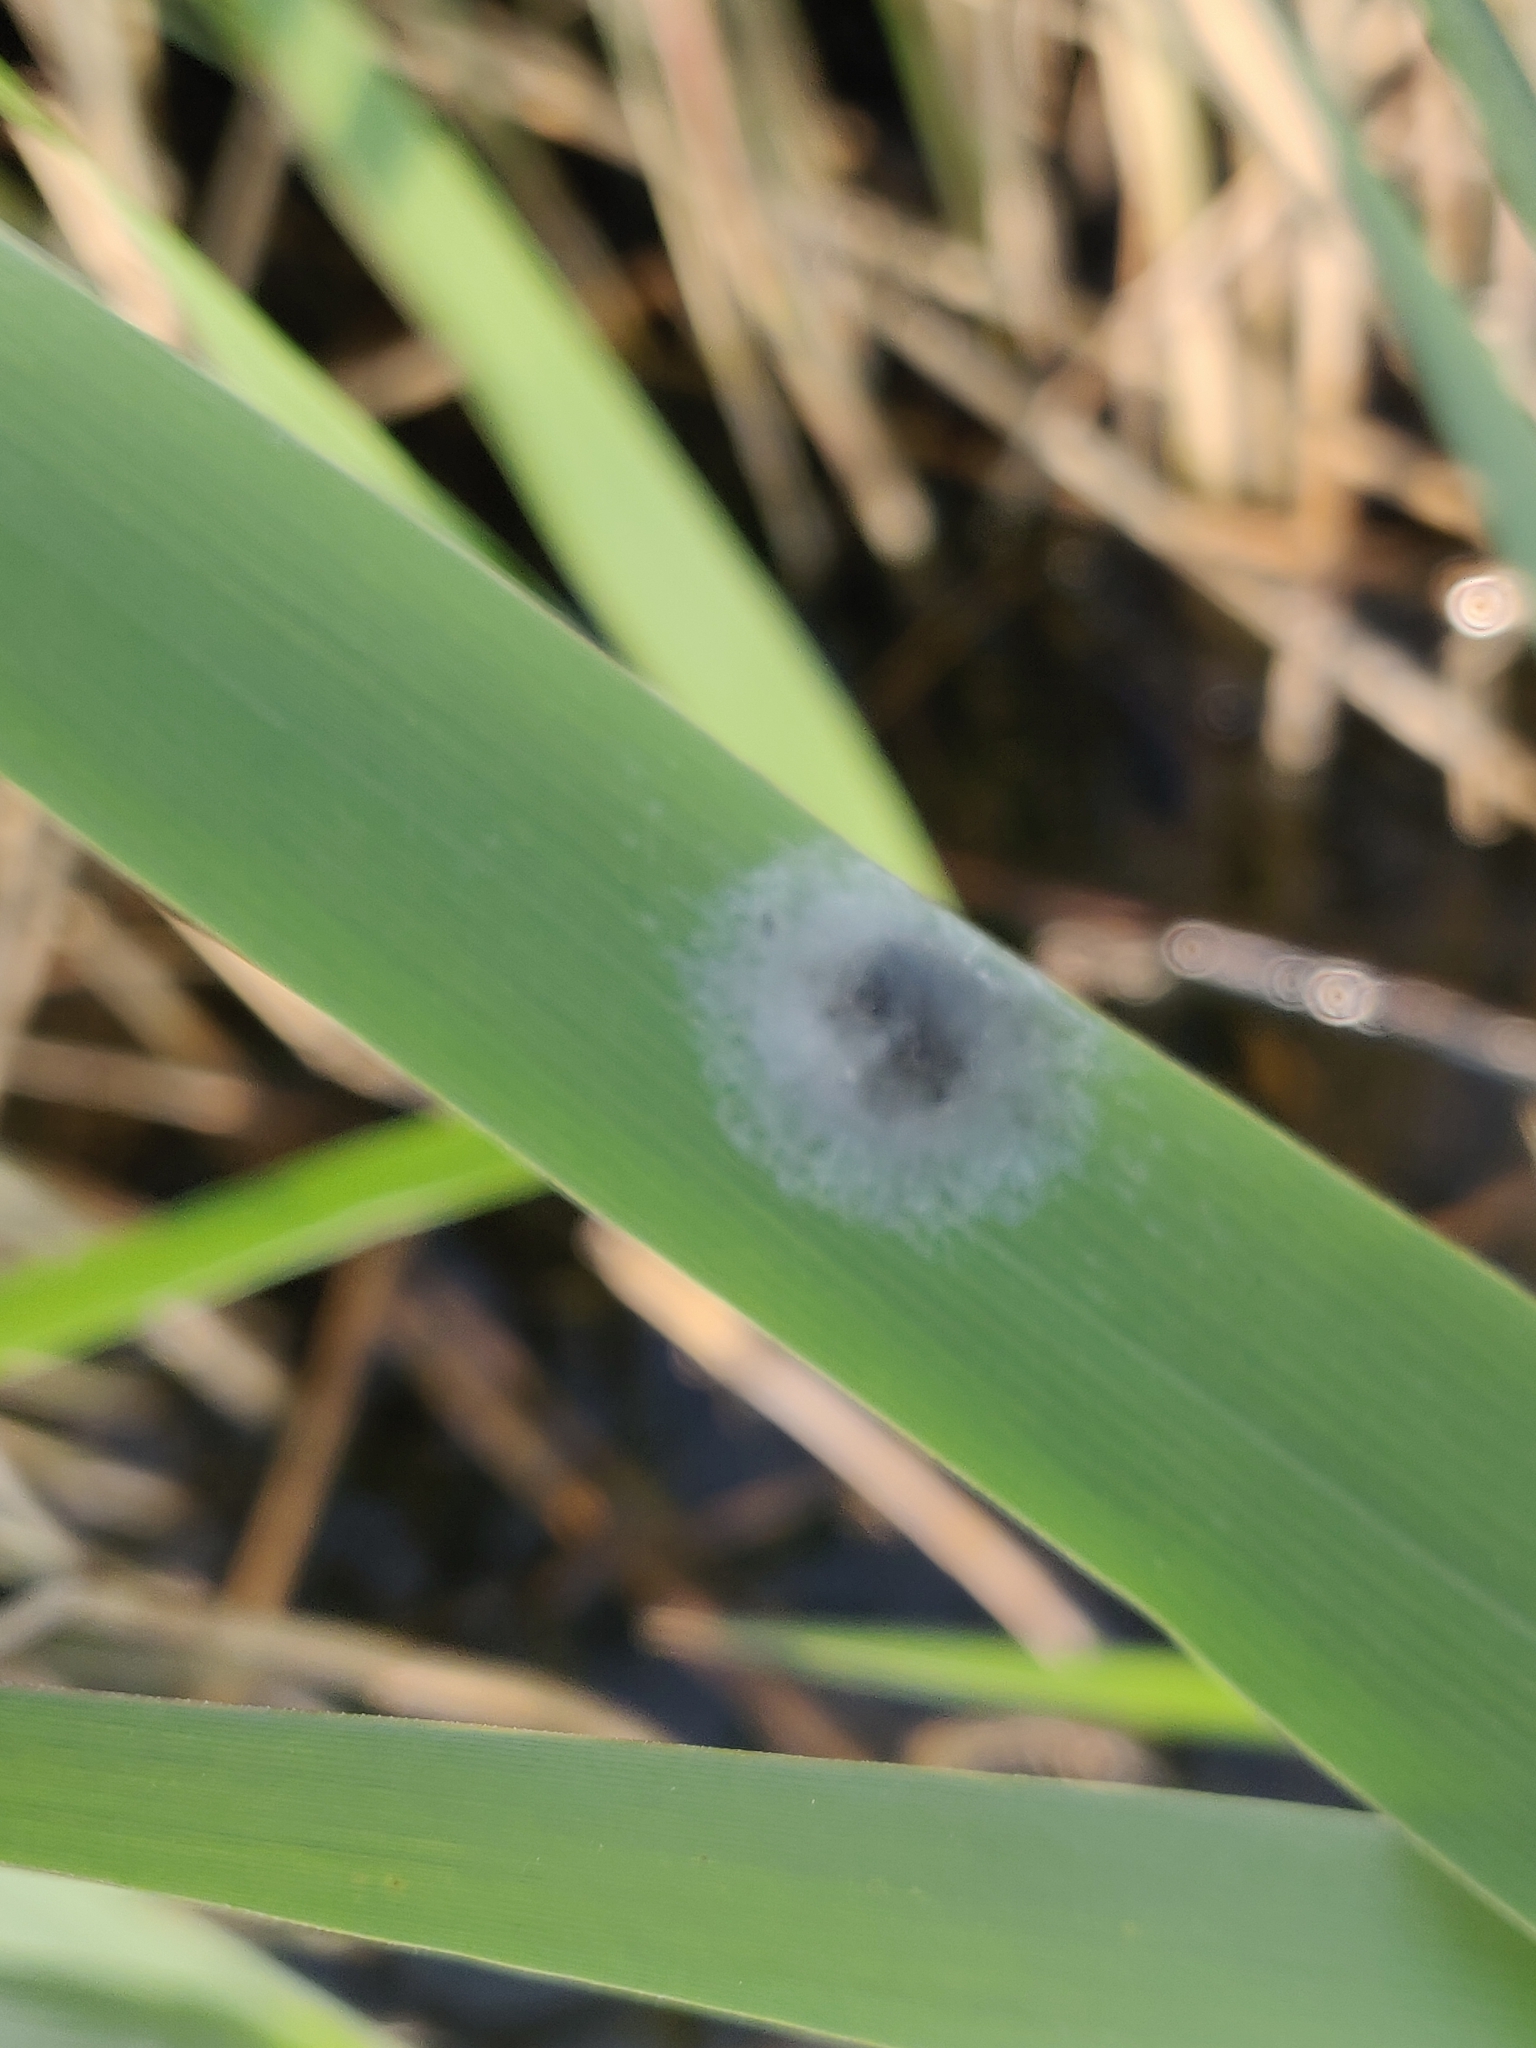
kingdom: Animalia
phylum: Arthropoda
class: Arachnida
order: Araneae
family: Tetragnathidae
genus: Tetragnatha
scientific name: Tetragnatha striata
